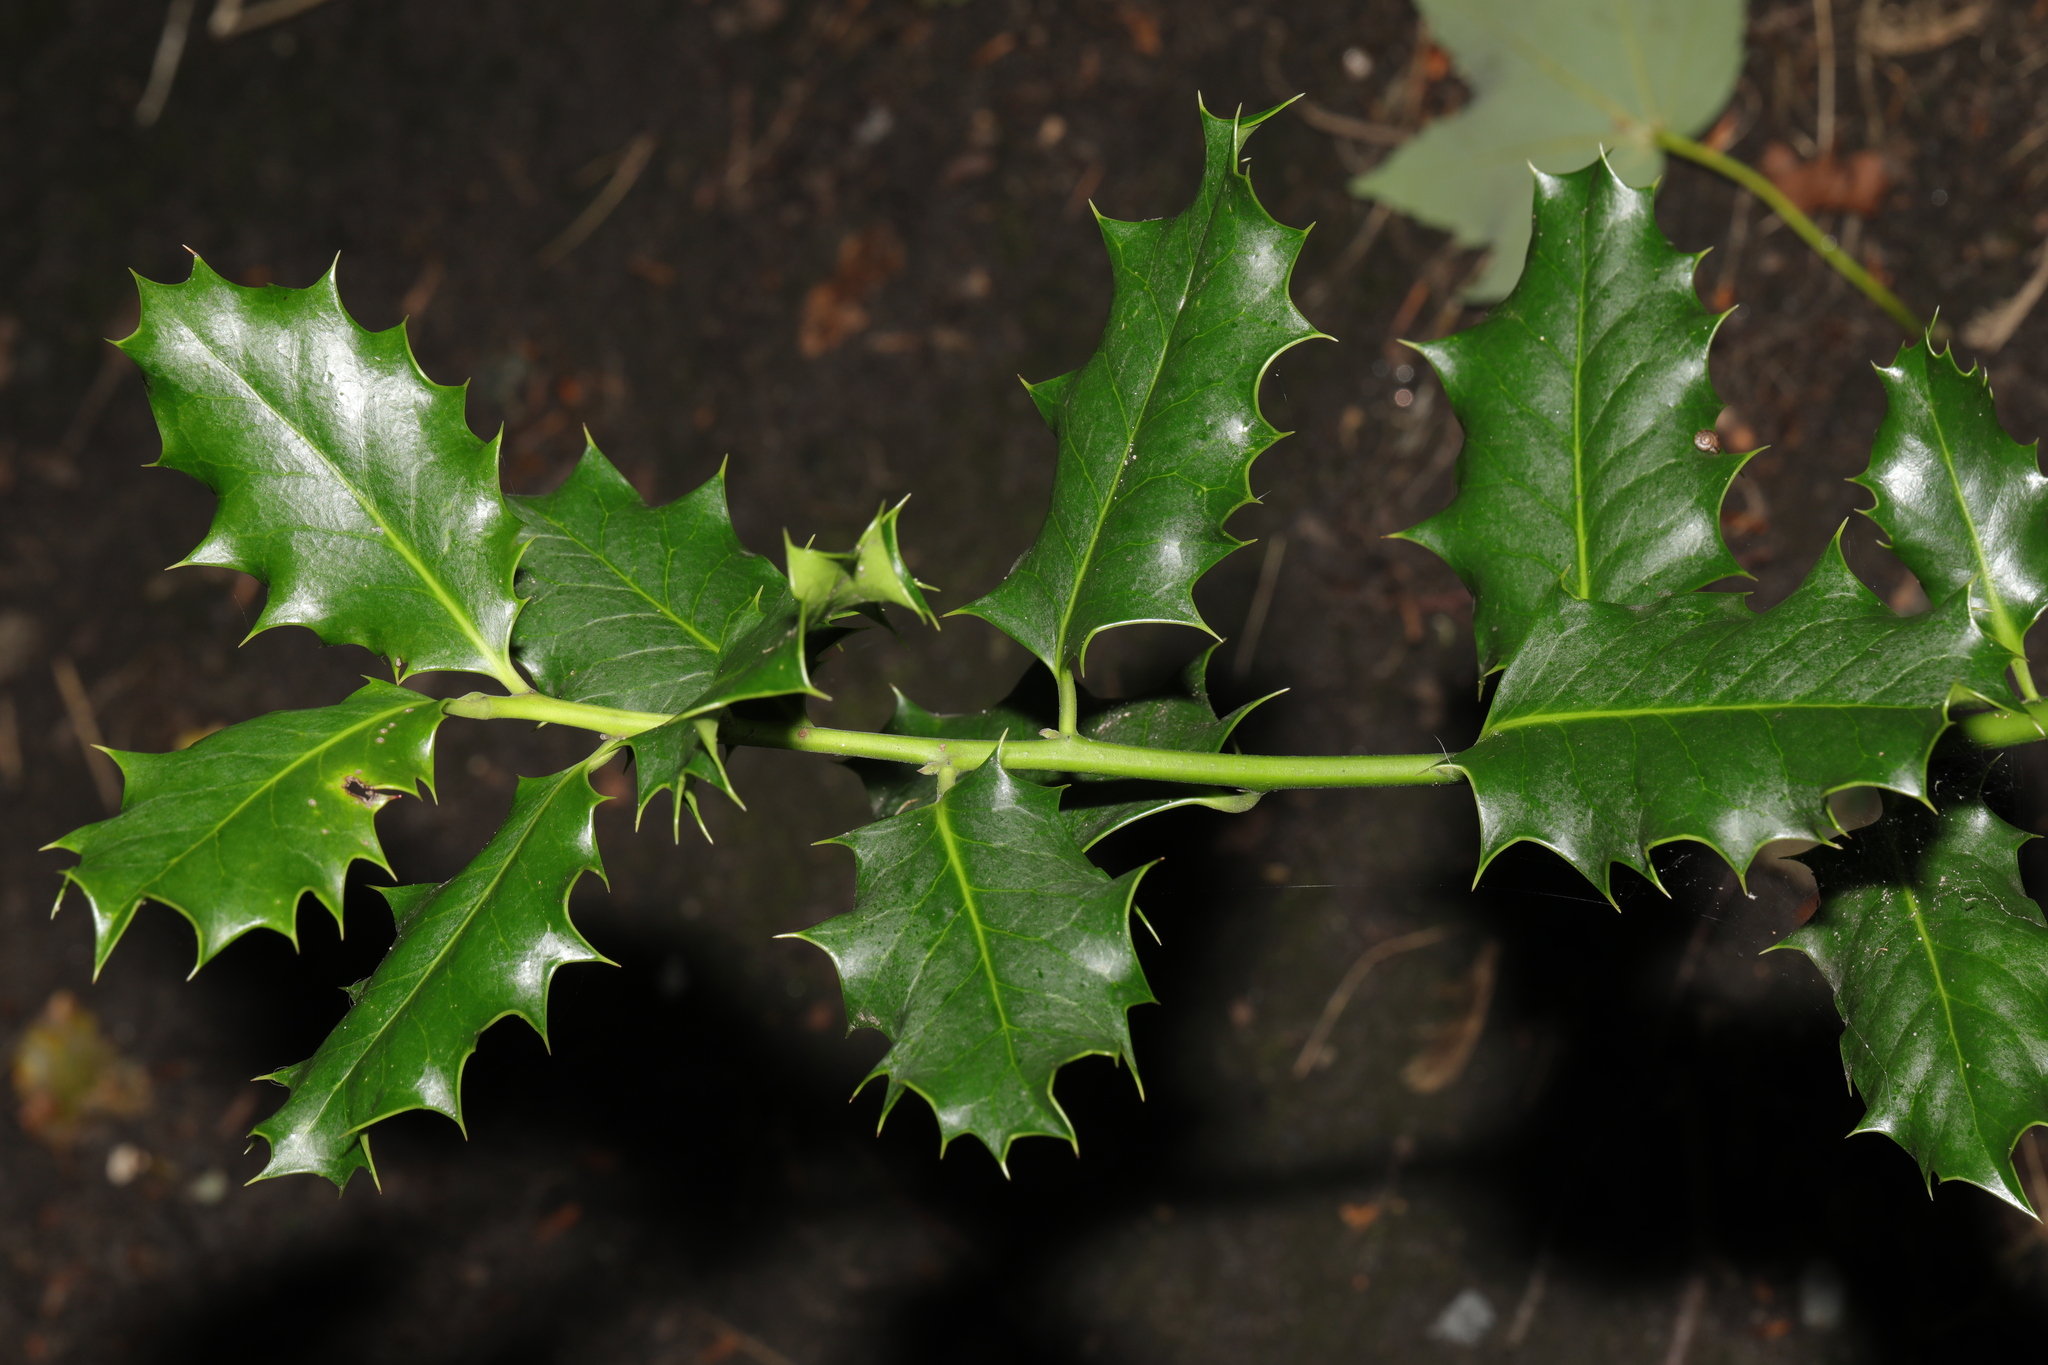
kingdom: Plantae
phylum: Tracheophyta
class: Magnoliopsida
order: Aquifoliales
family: Aquifoliaceae
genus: Ilex
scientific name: Ilex aquifolium
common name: English holly
